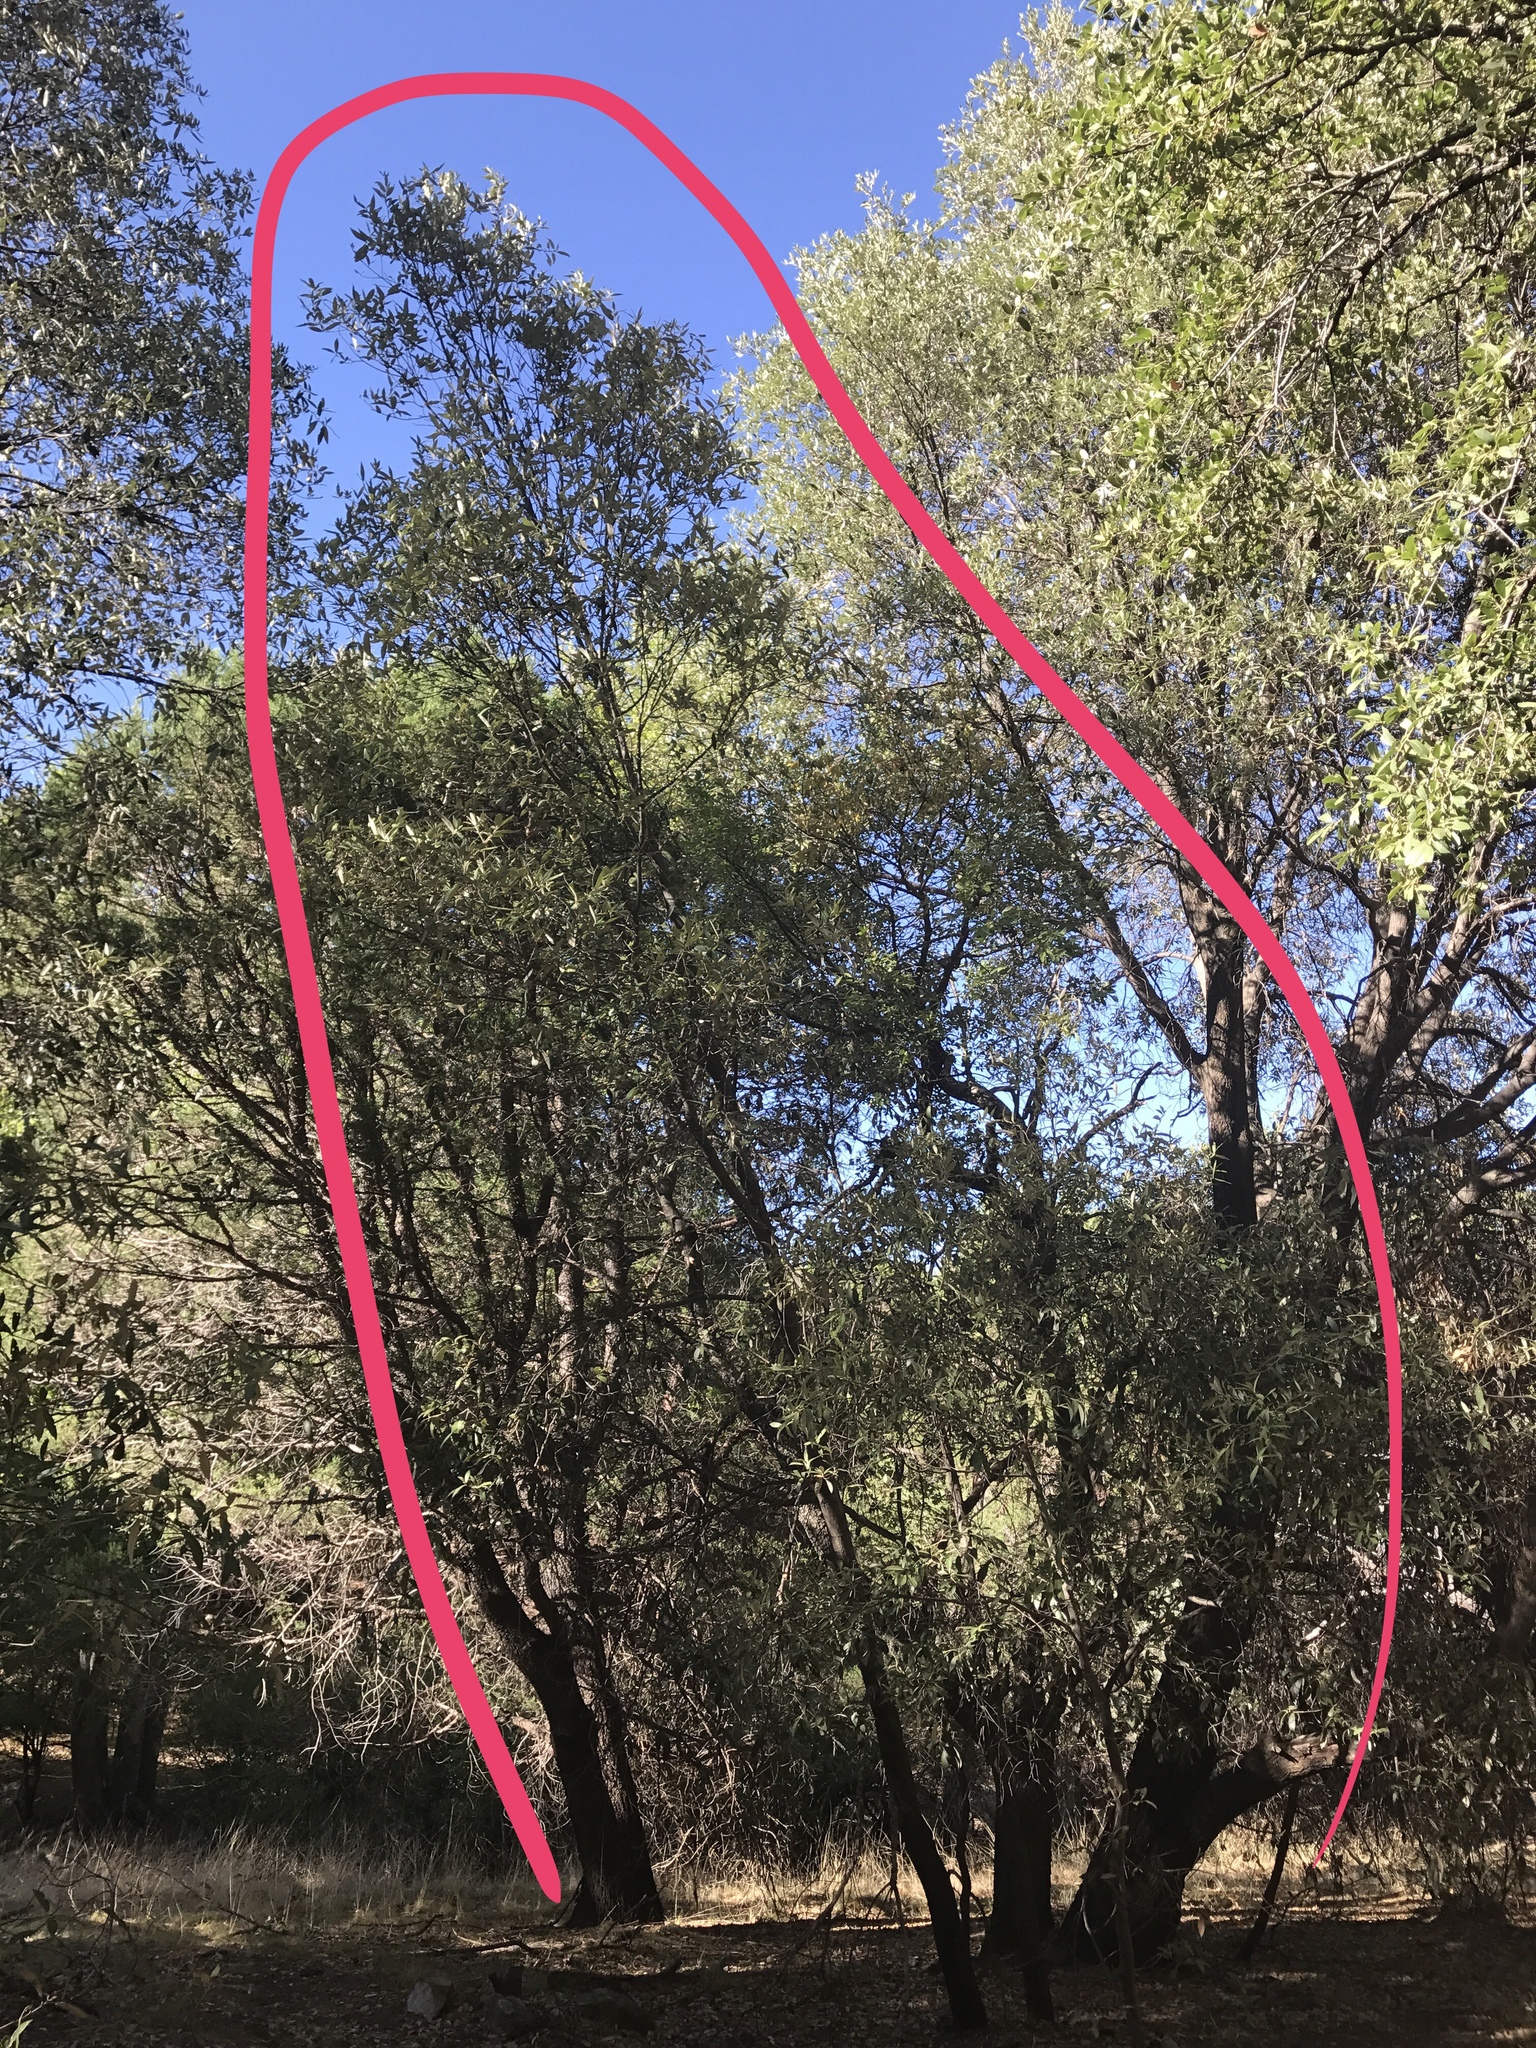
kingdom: Plantae
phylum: Tracheophyta
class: Magnoliopsida
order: Fagales
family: Fagaceae
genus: Quercus
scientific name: Quercus hypoleucoides
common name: Silverleaf oak
